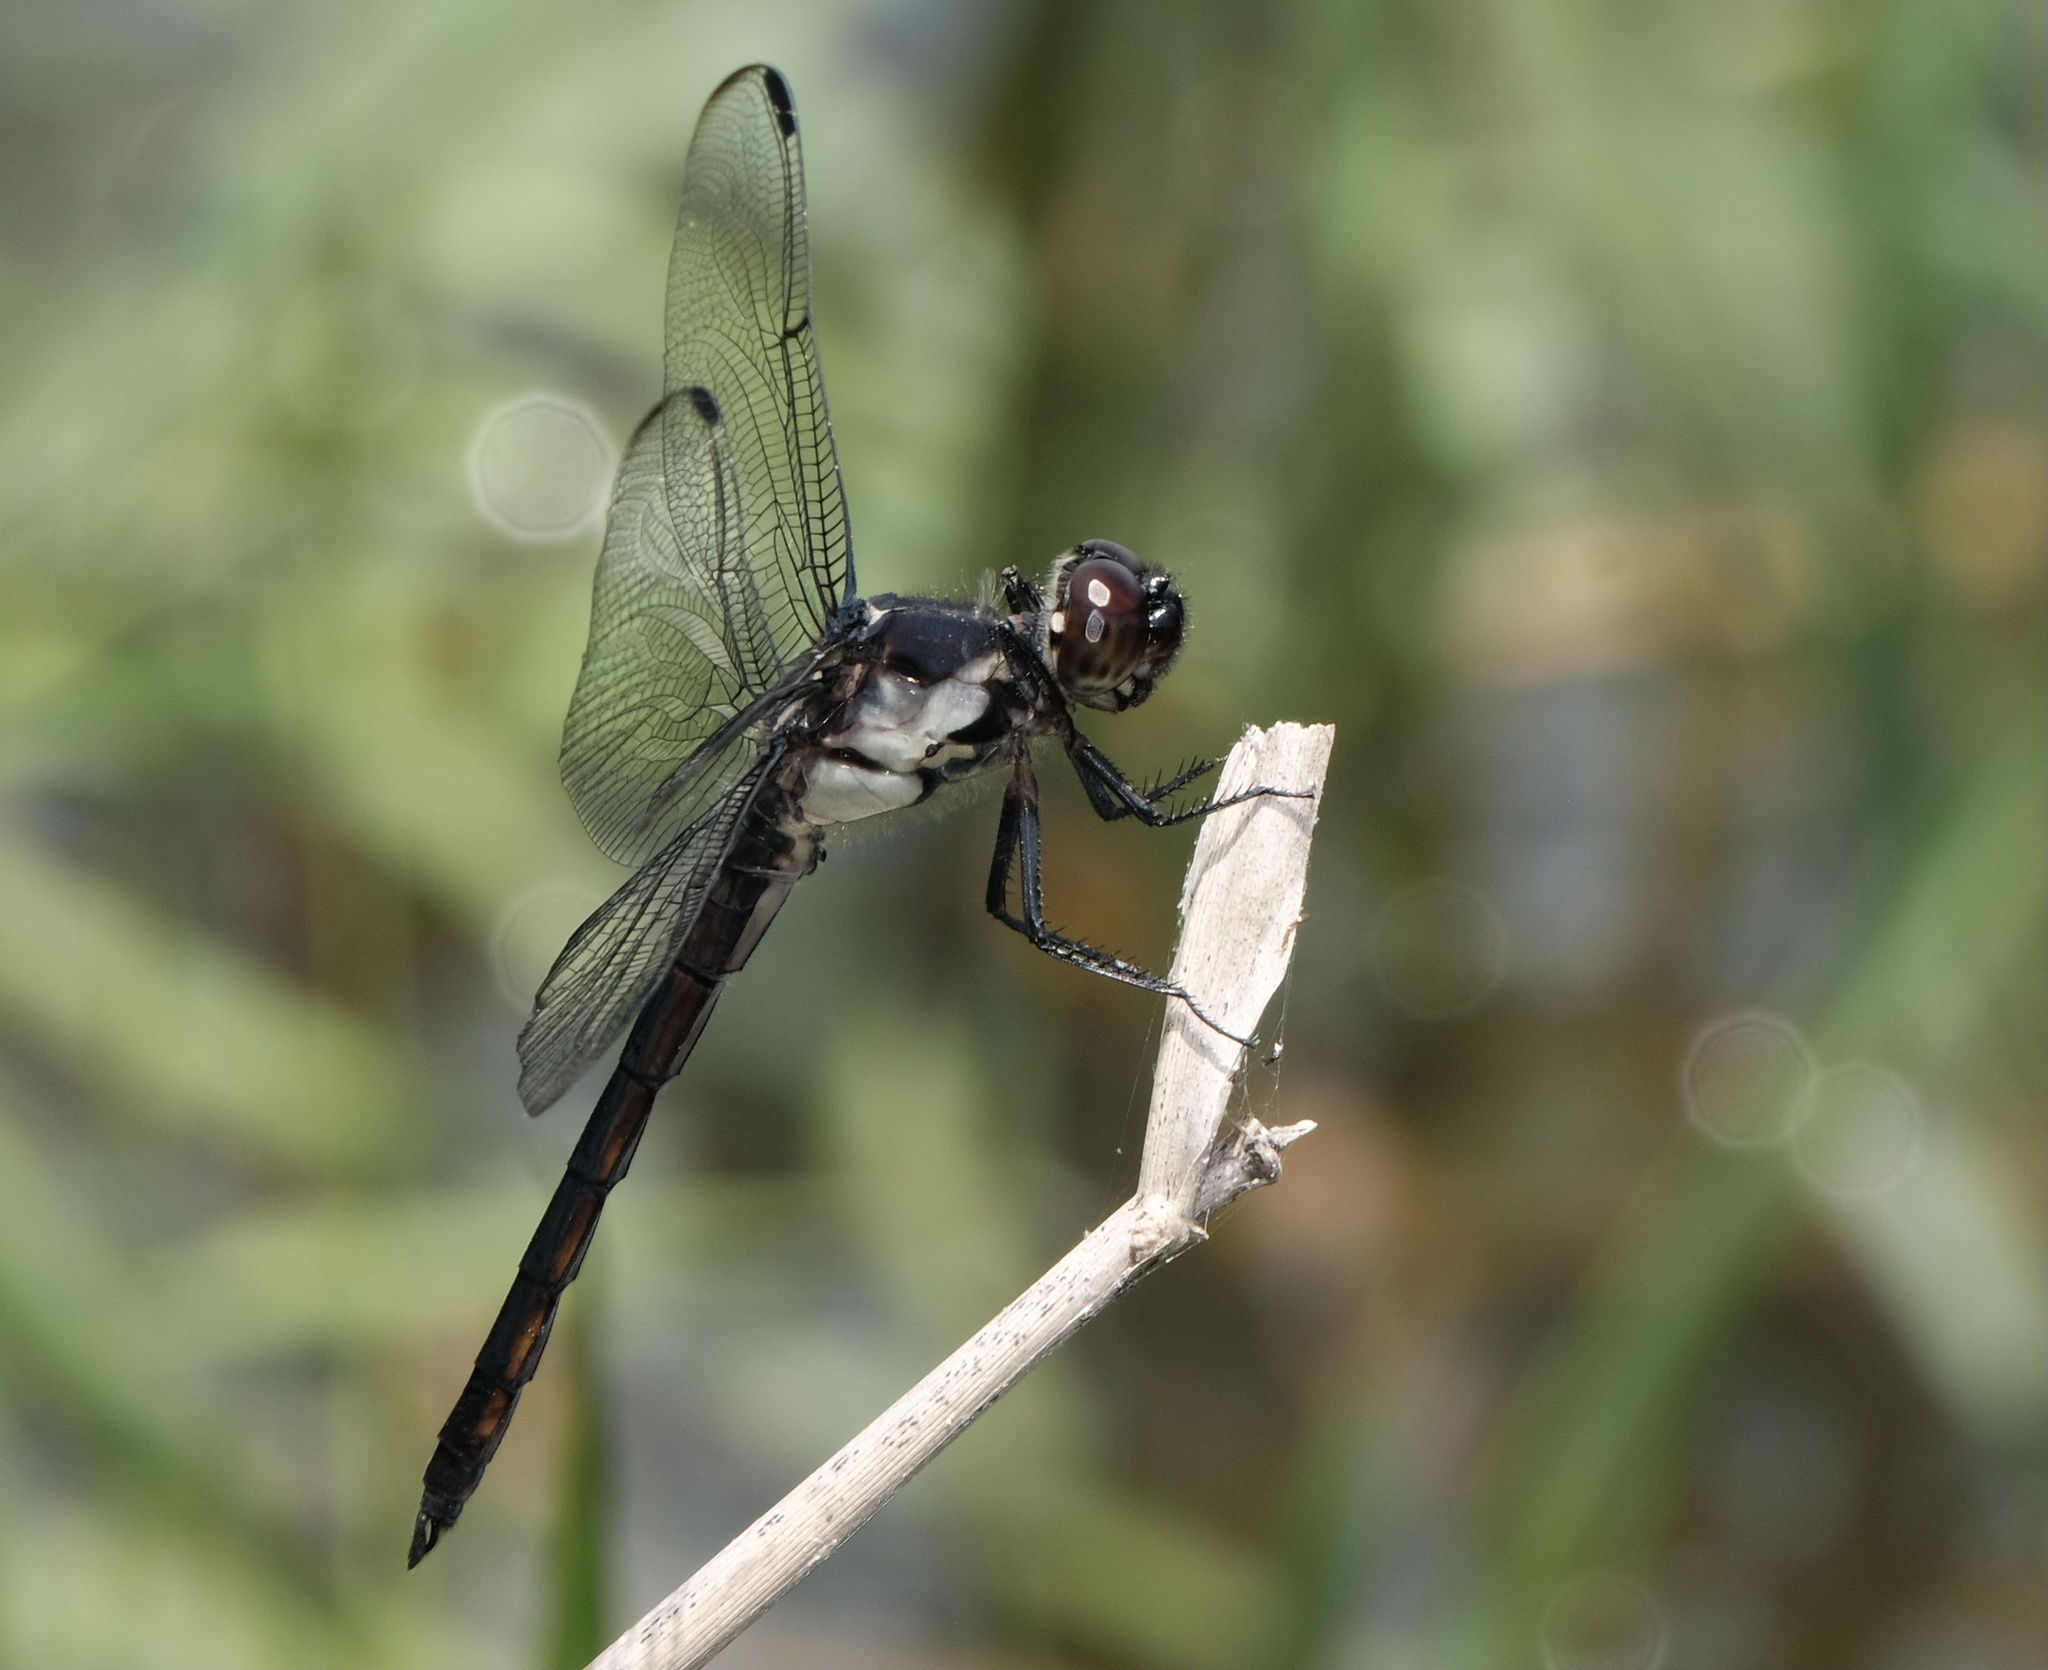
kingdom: Animalia
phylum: Arthropoda
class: Insecta
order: Odonata
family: Libellulidae
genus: Libellula
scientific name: Libellula incesta
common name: Slaty skimmer
